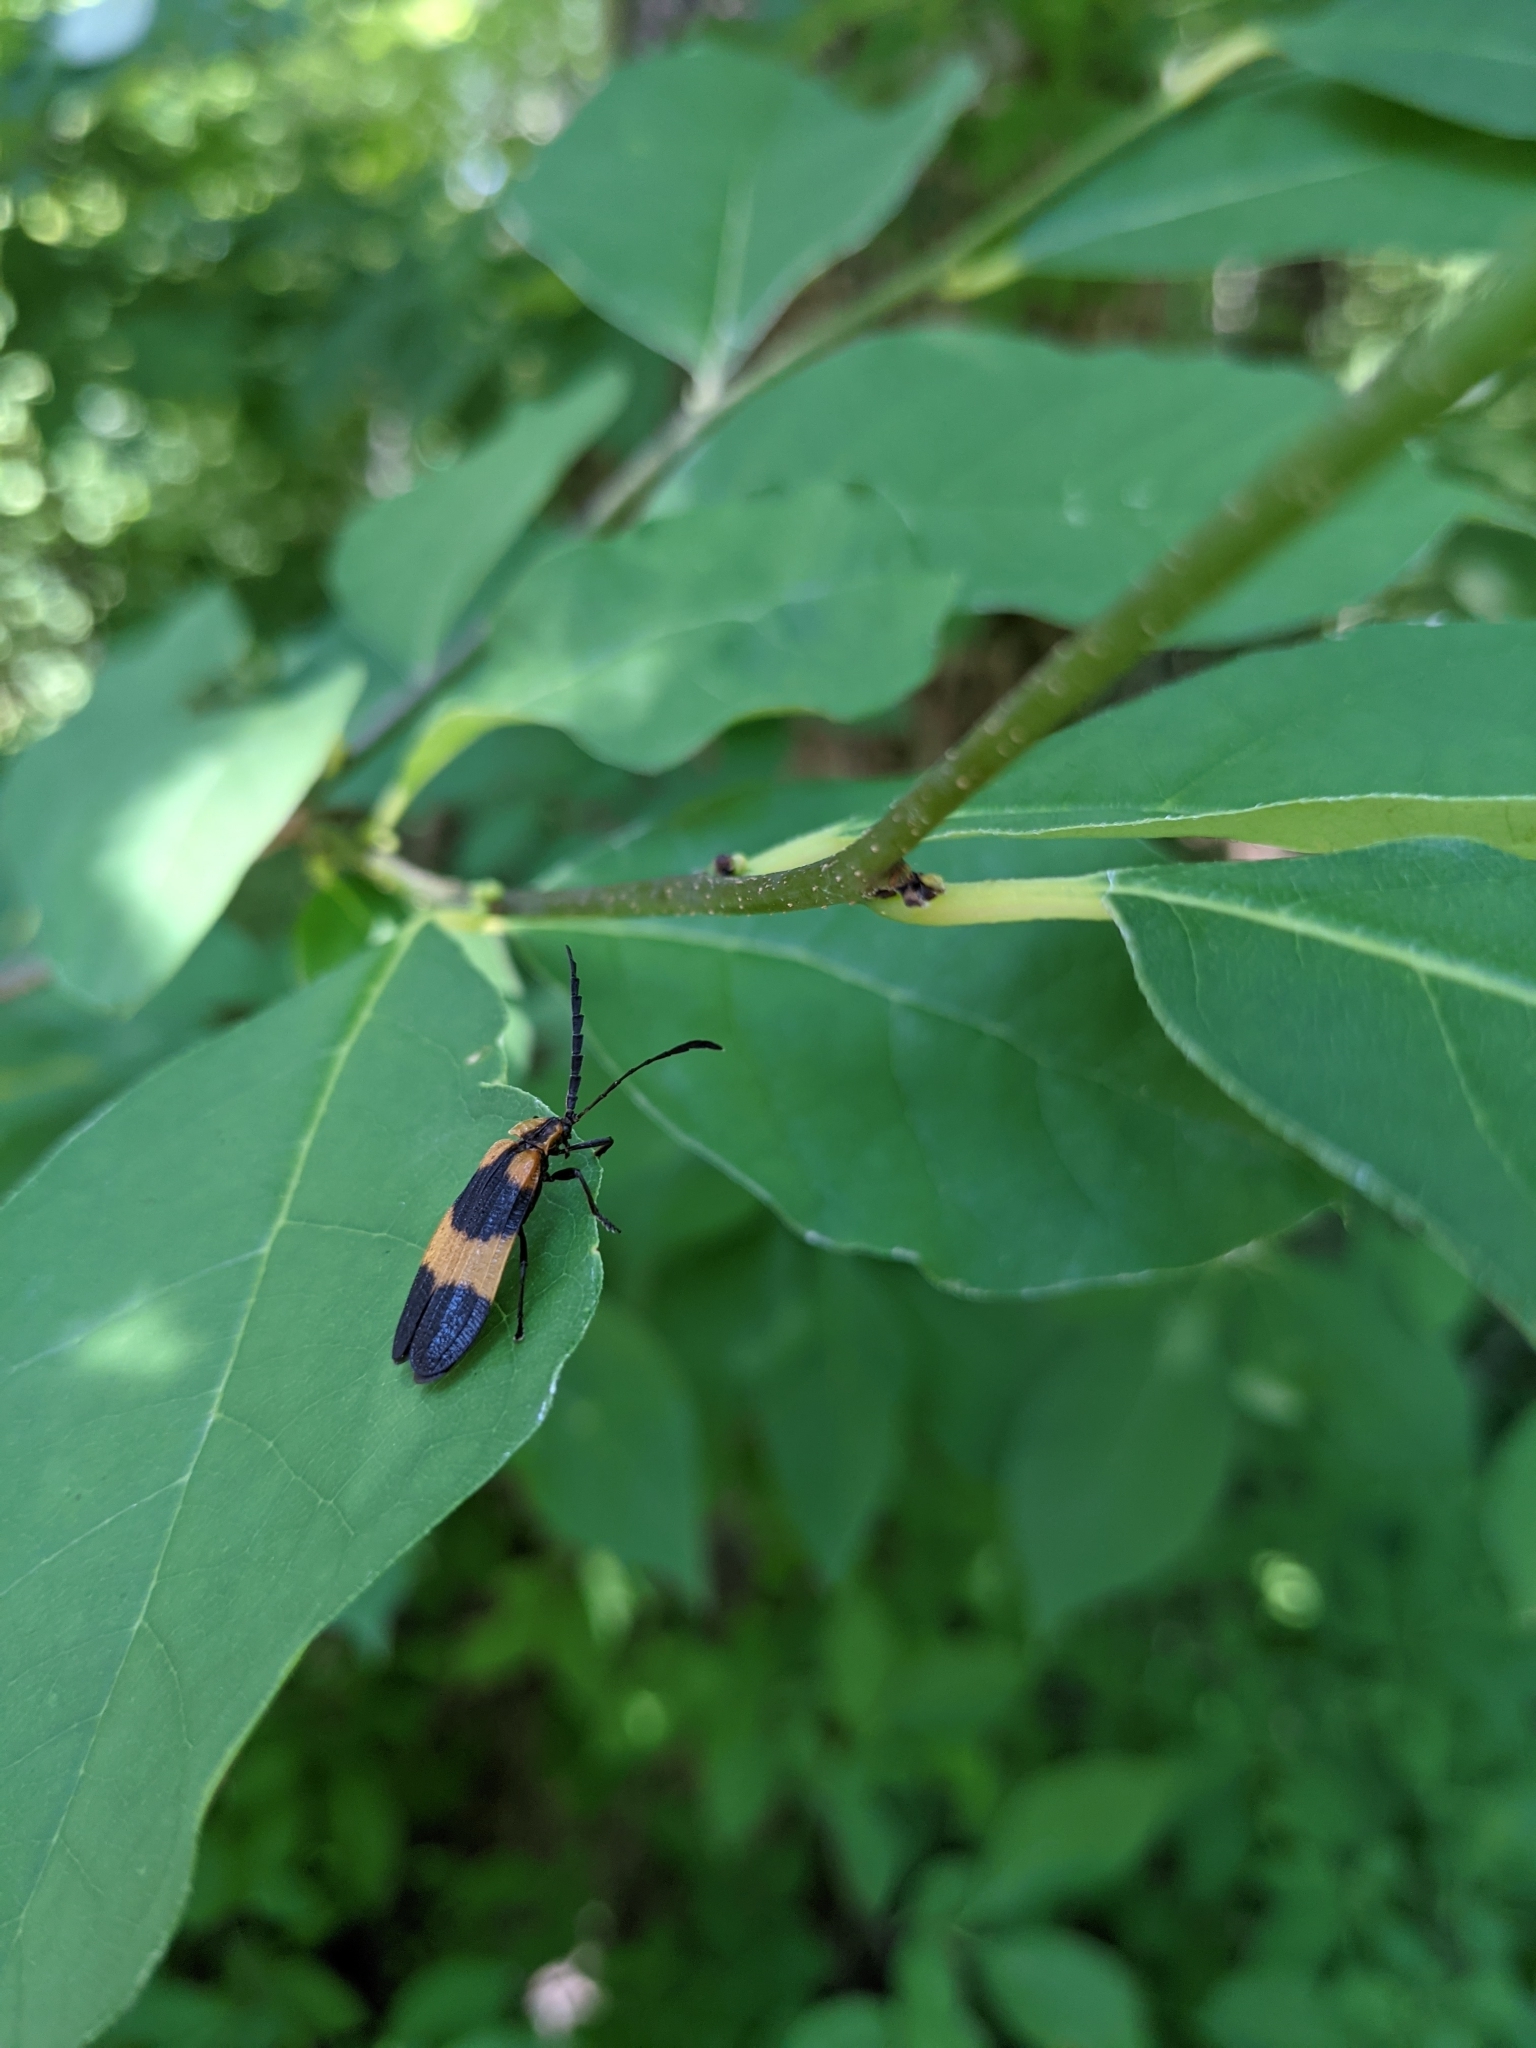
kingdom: Animalia
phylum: Arthropoda
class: Insecta
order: Coleoptera
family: Lycidae
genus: Calopteron
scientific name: Calopteron reticulatum
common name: Banded net-winged beetle
